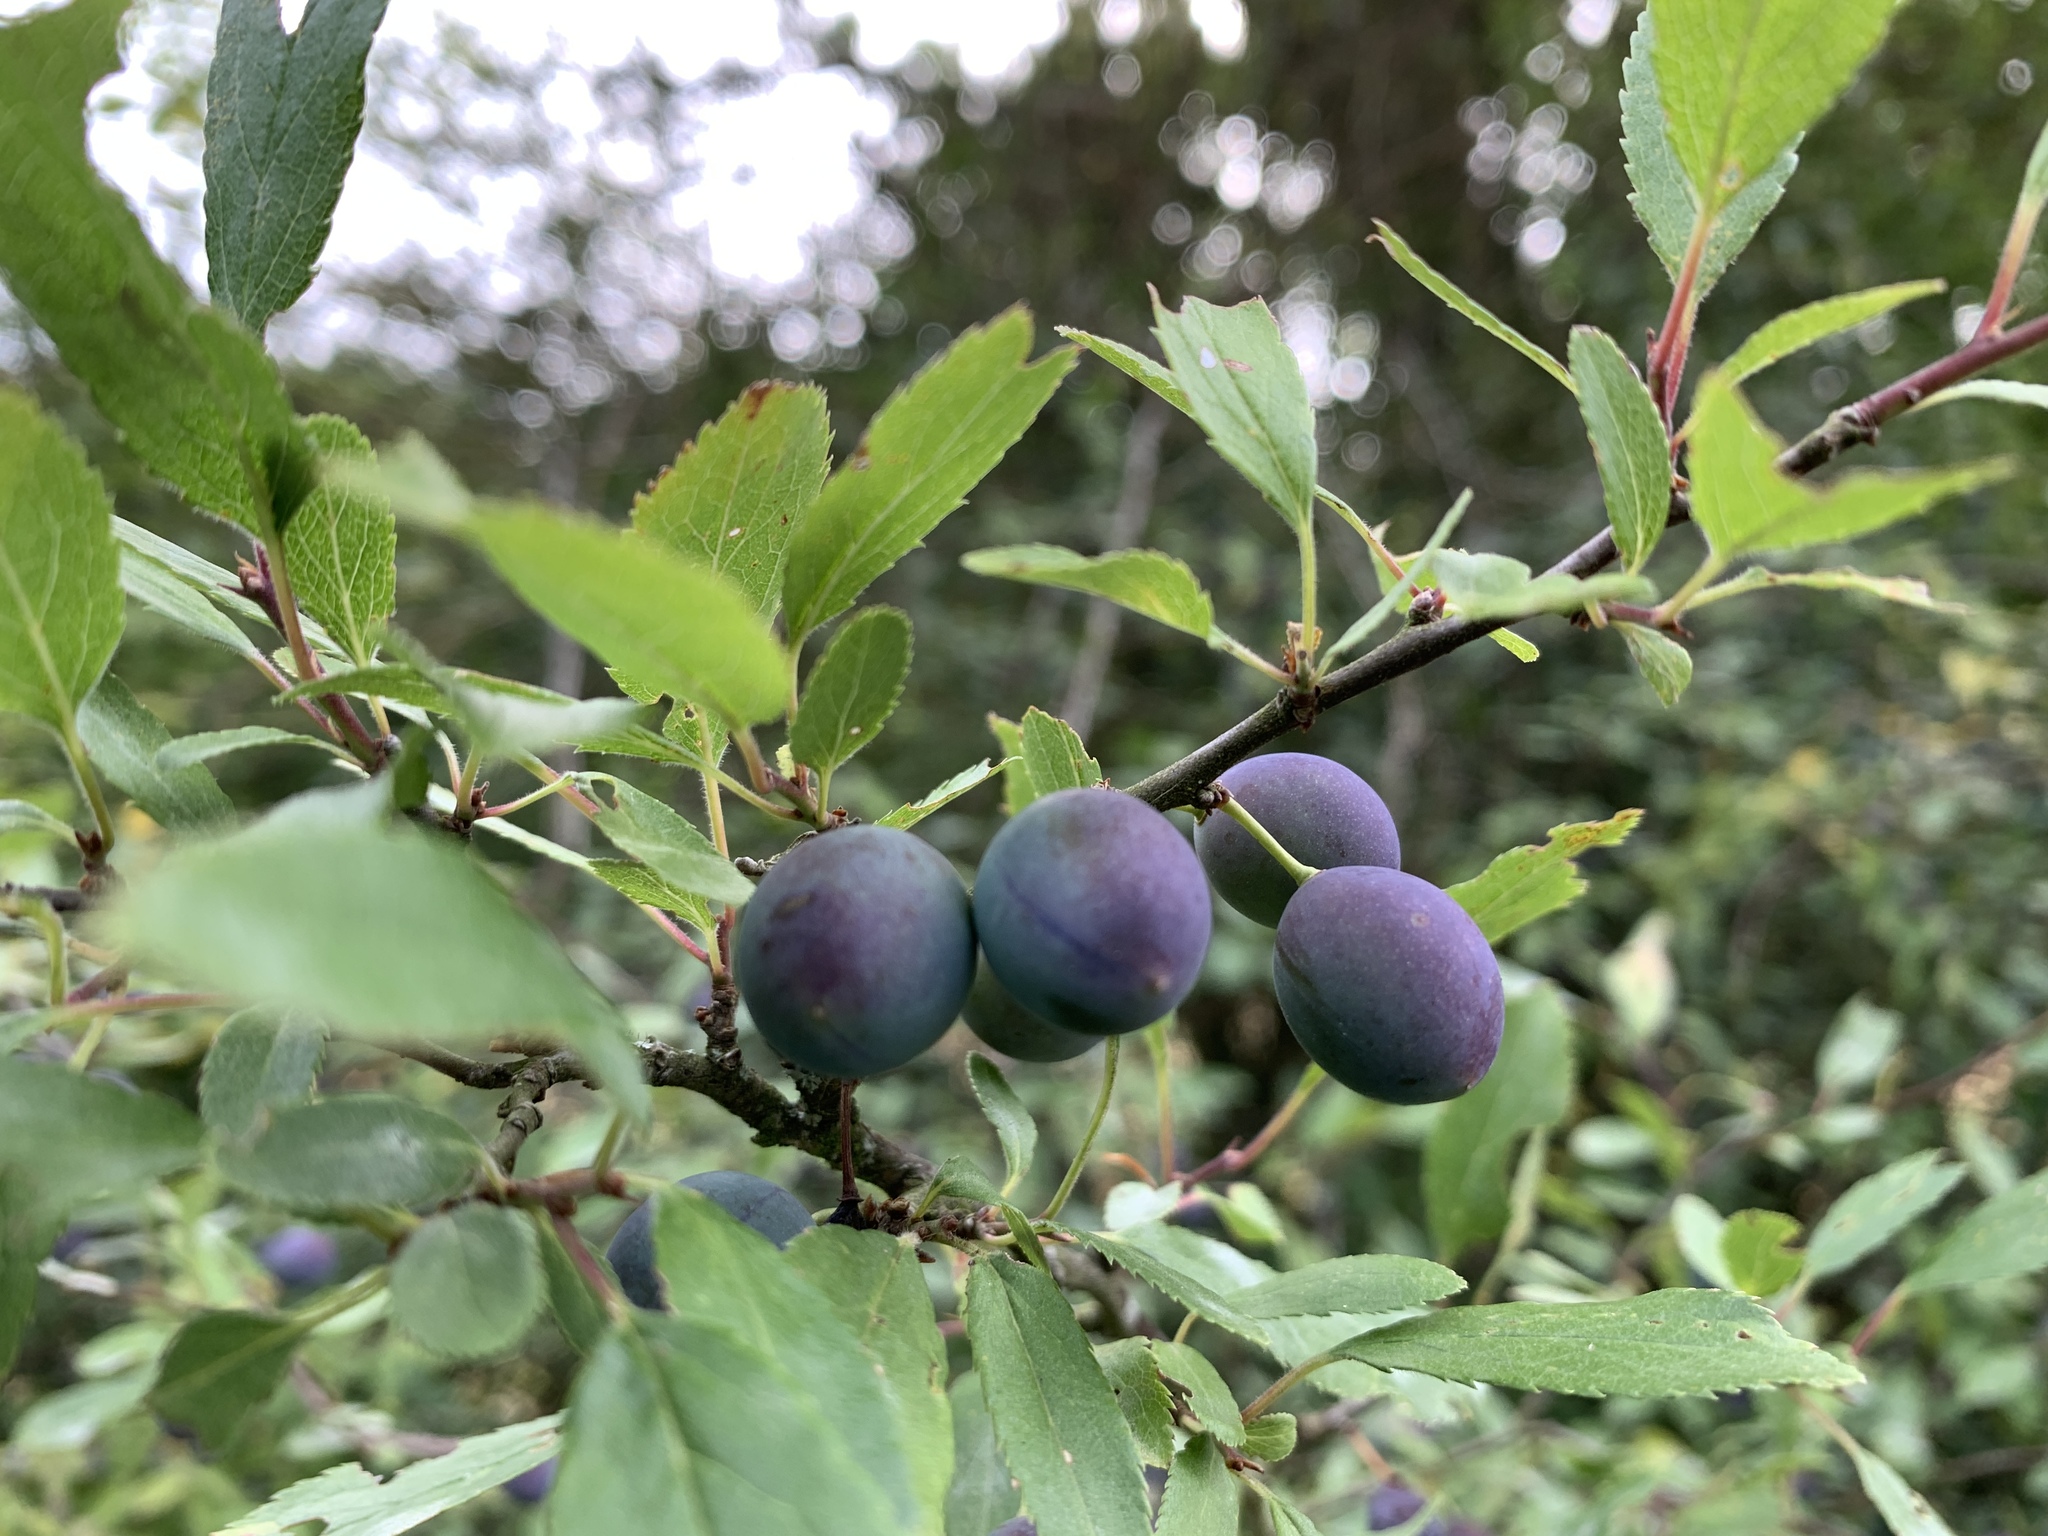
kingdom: Plantae
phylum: Tracheophyta
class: Magnoliopsida
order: Rosales
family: Rosaceae
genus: Prunus
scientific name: Prunus spinosa
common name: Blackthorn
